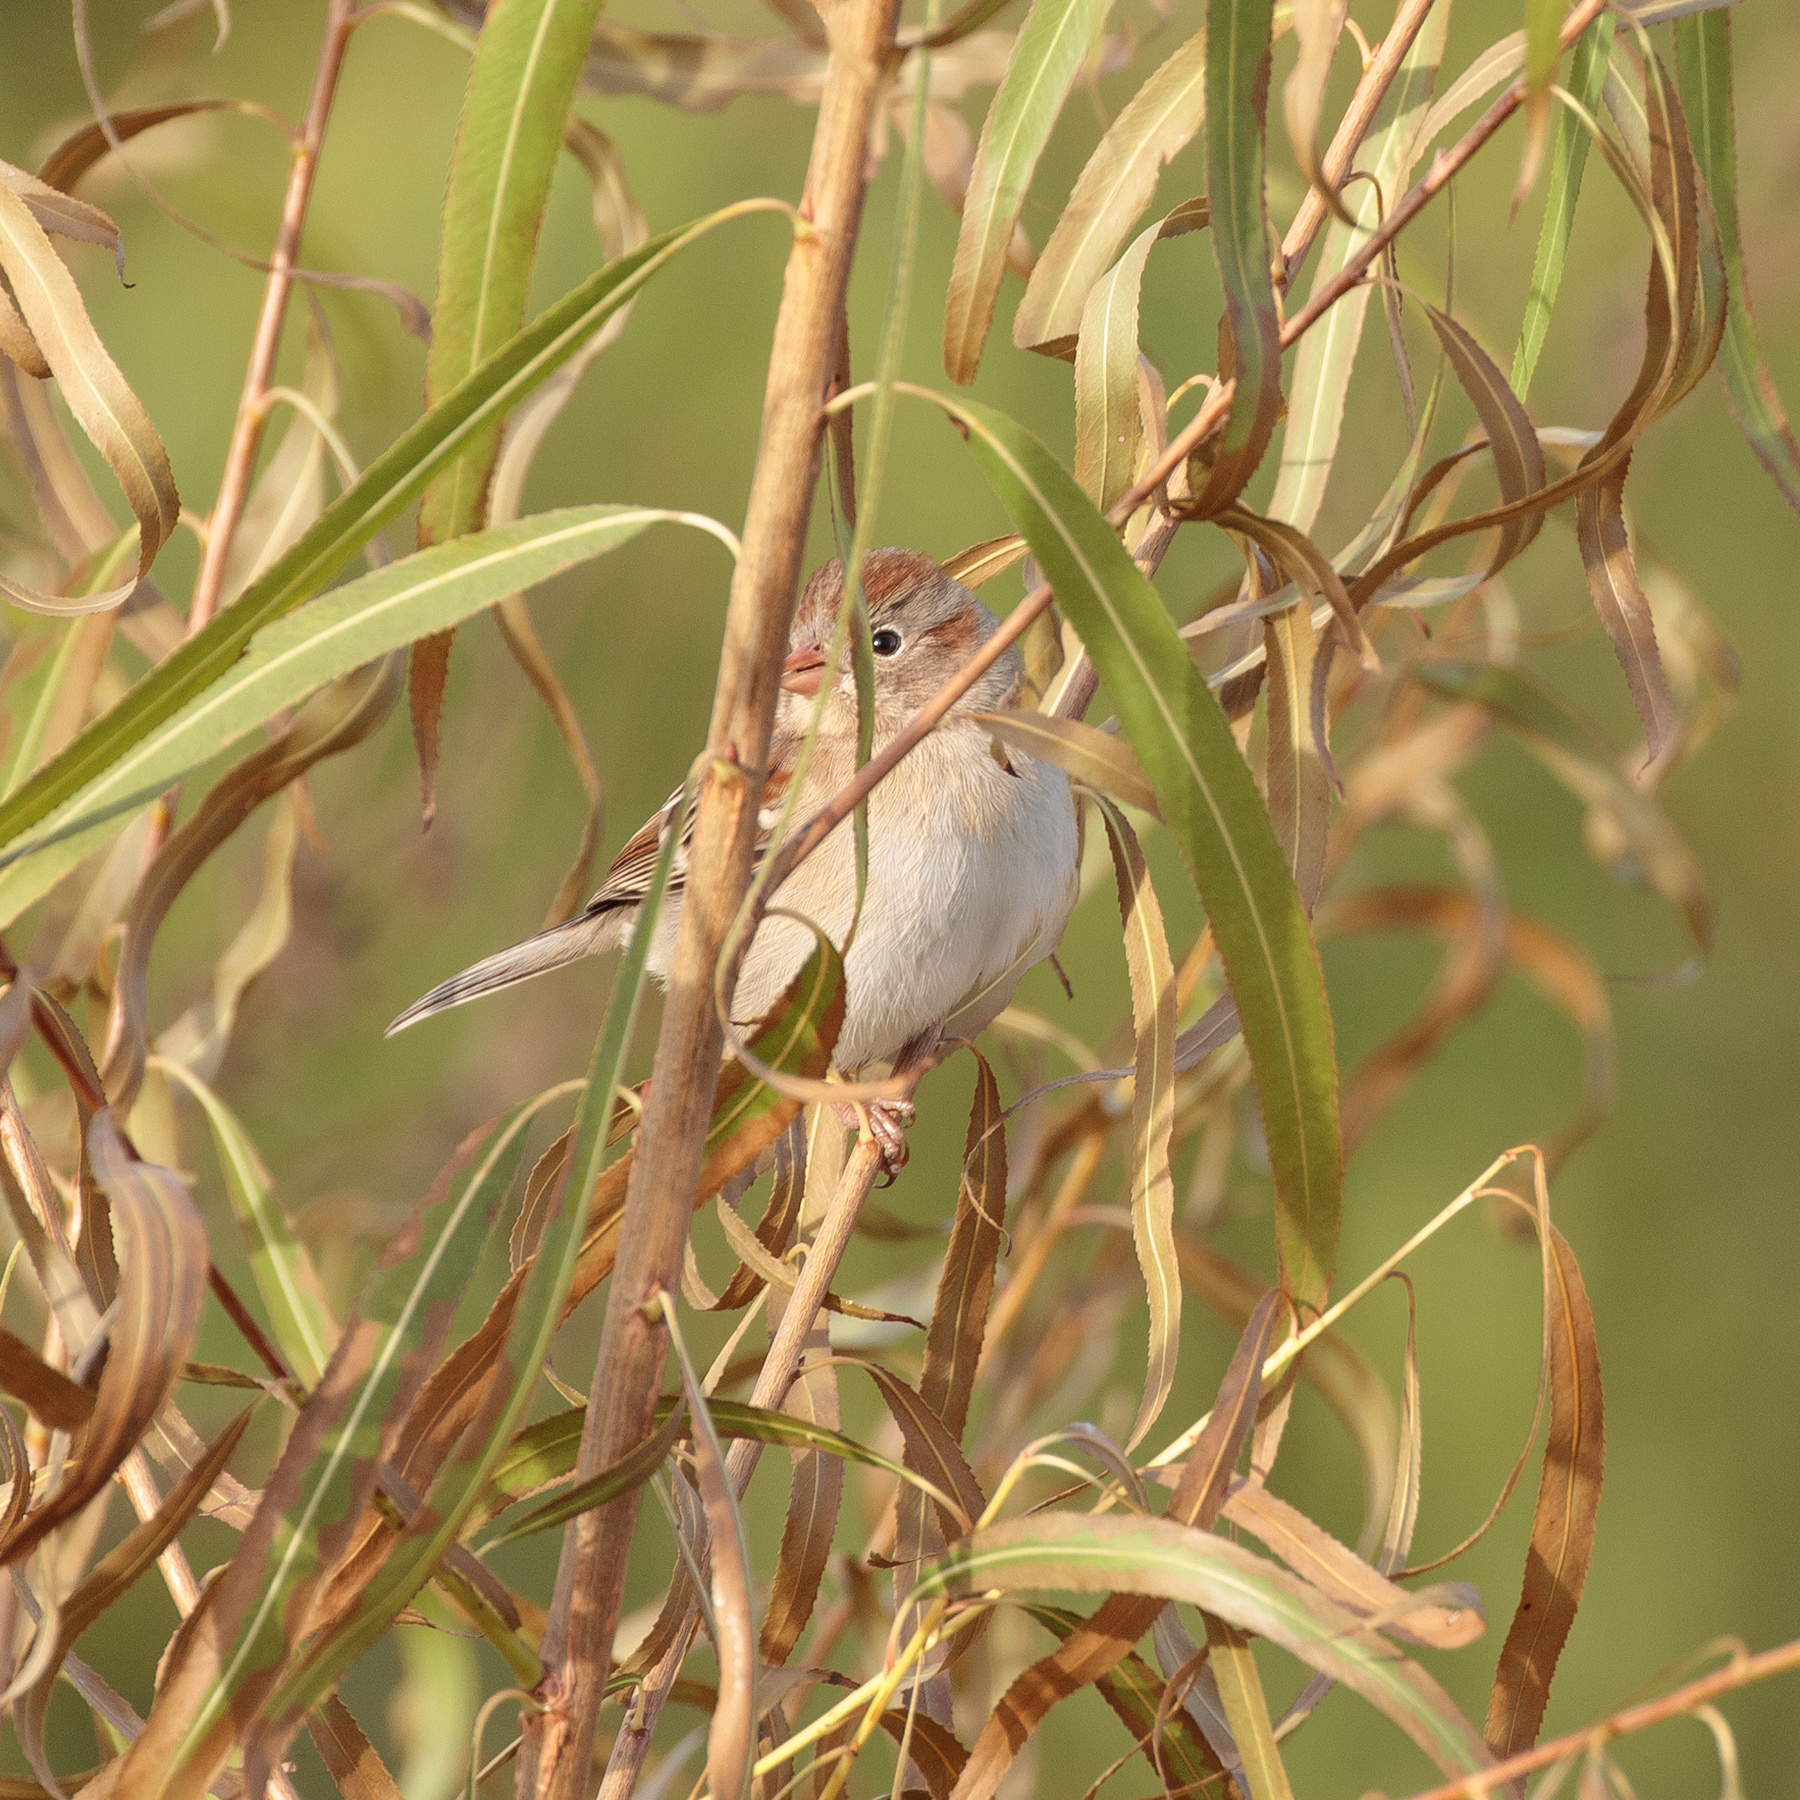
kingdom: Animalia
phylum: Chordata
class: Aves
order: Passeriformes
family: Passerellidae
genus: Spizella
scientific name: Spizella pusilla
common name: Field sparrow
